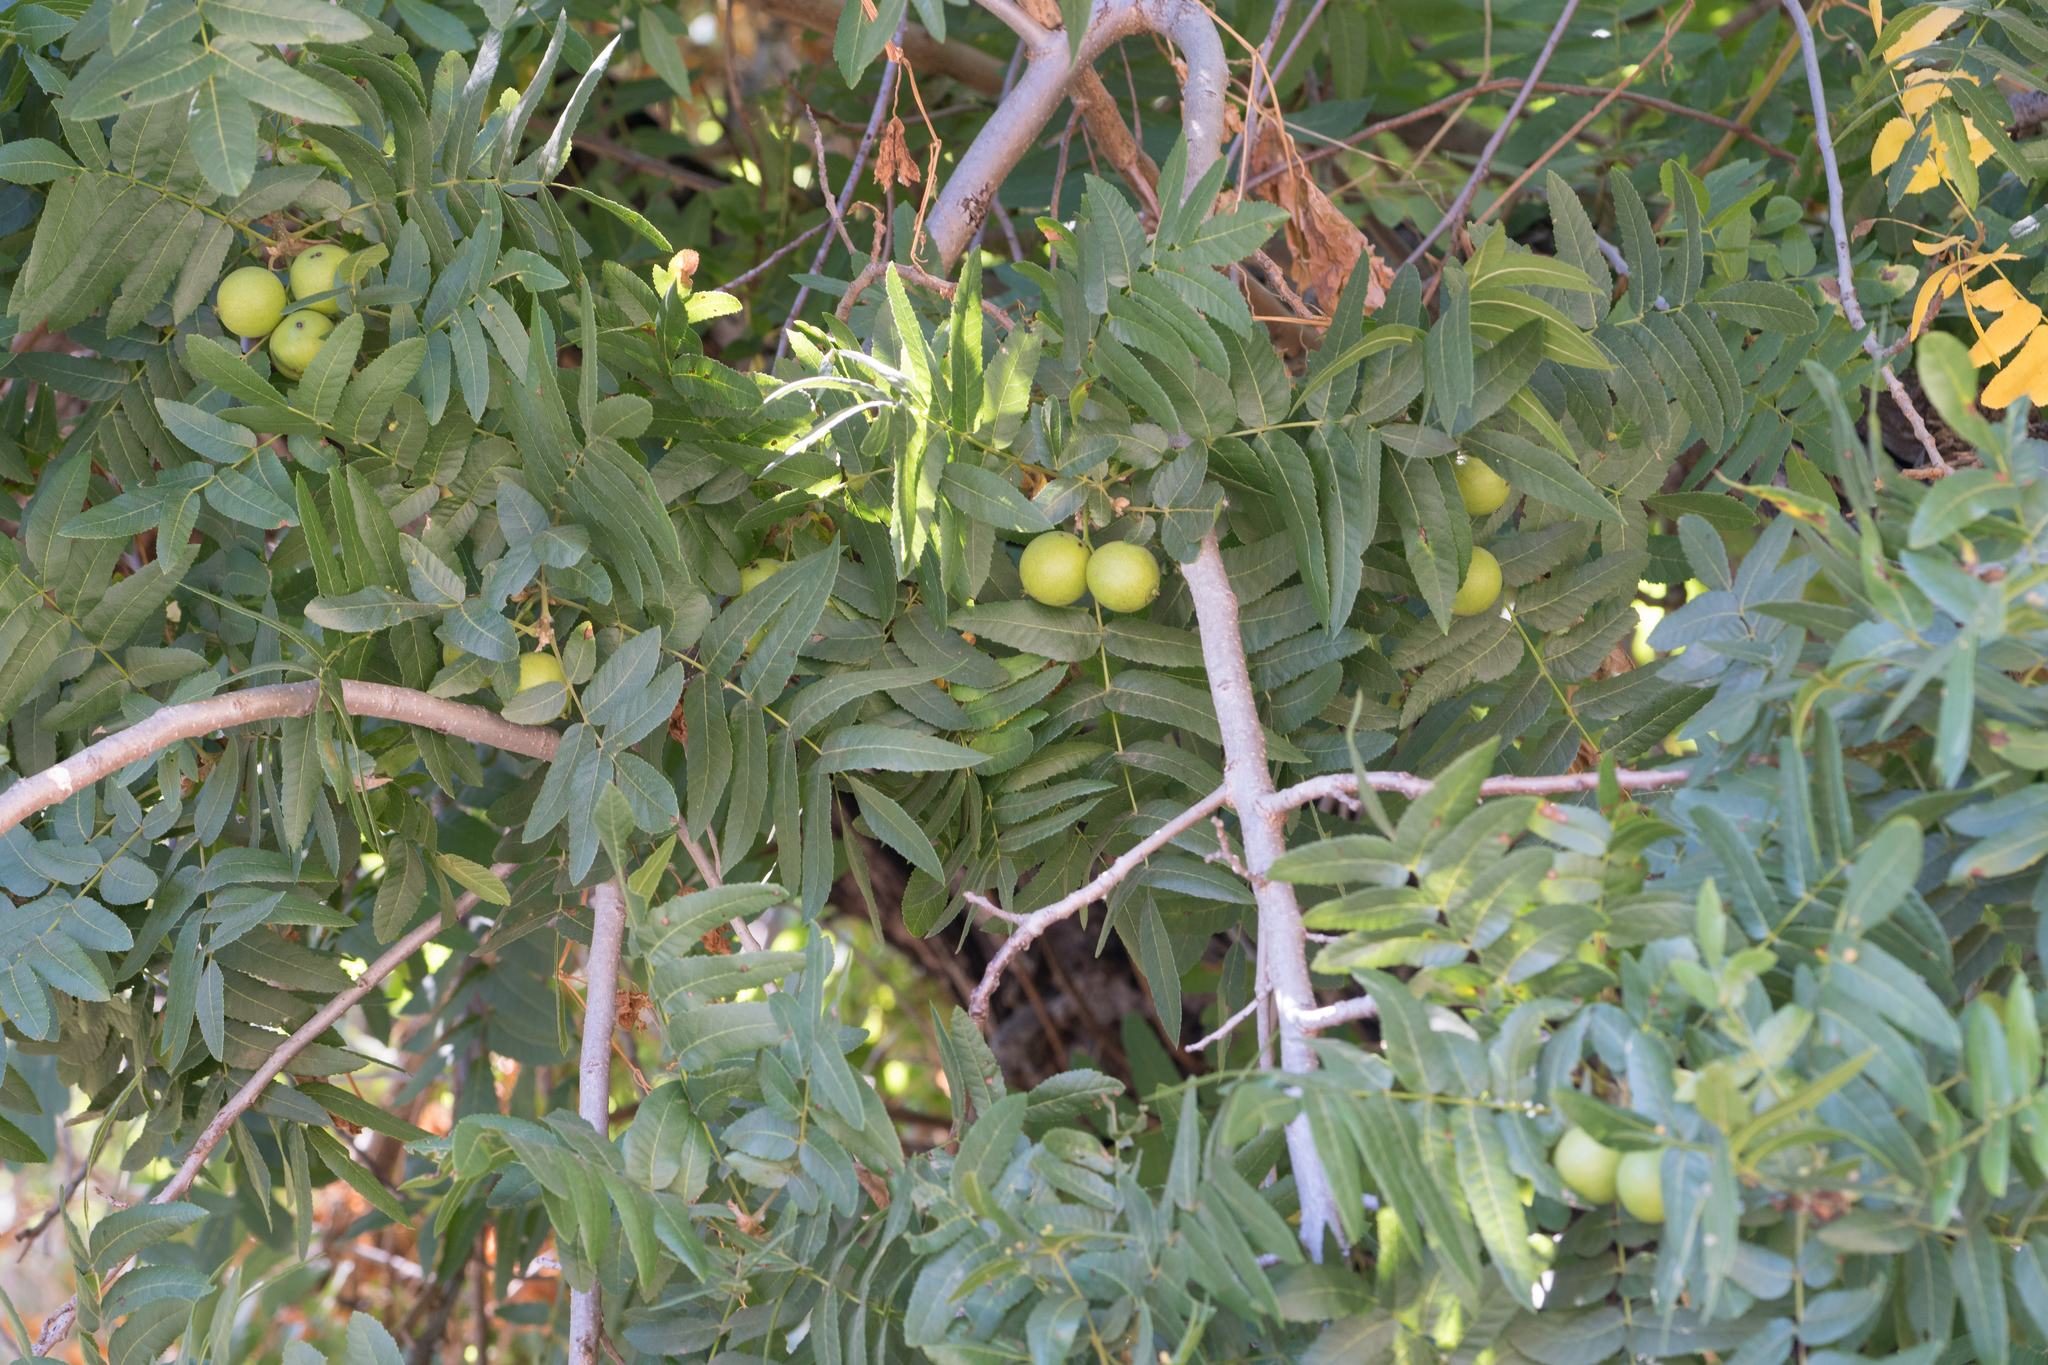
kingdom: Plantae
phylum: Tracheophyta
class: Magnoliopsida
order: Fagales
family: Juglandaceae
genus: Juglans
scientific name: Juglans californica
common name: Southern california black walnut
